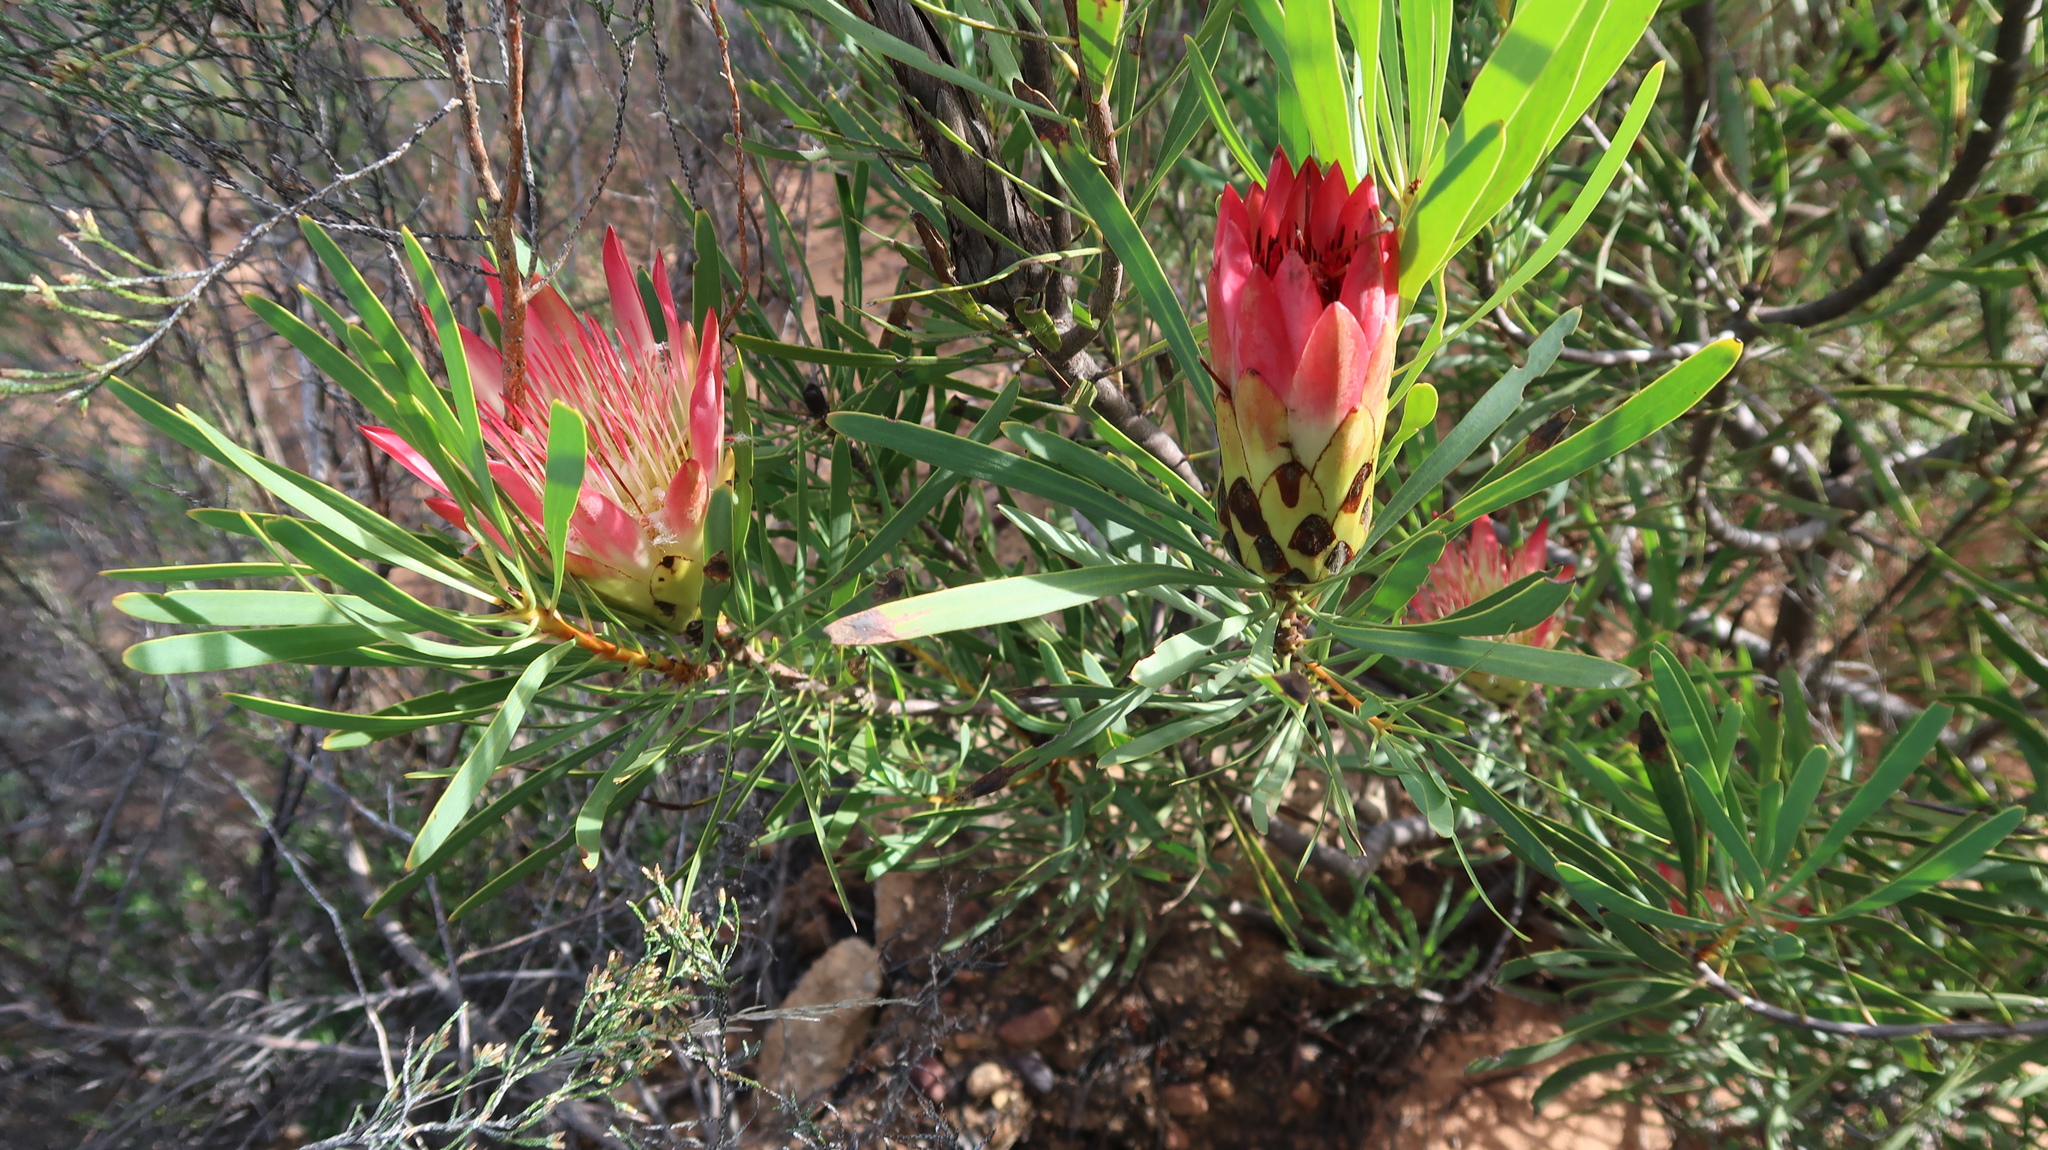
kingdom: Plantae
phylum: Tracheophyta
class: Magnoliopsida
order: Proteales
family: Proteaceae
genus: Protea
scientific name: Protea repens
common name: Sugarbush
